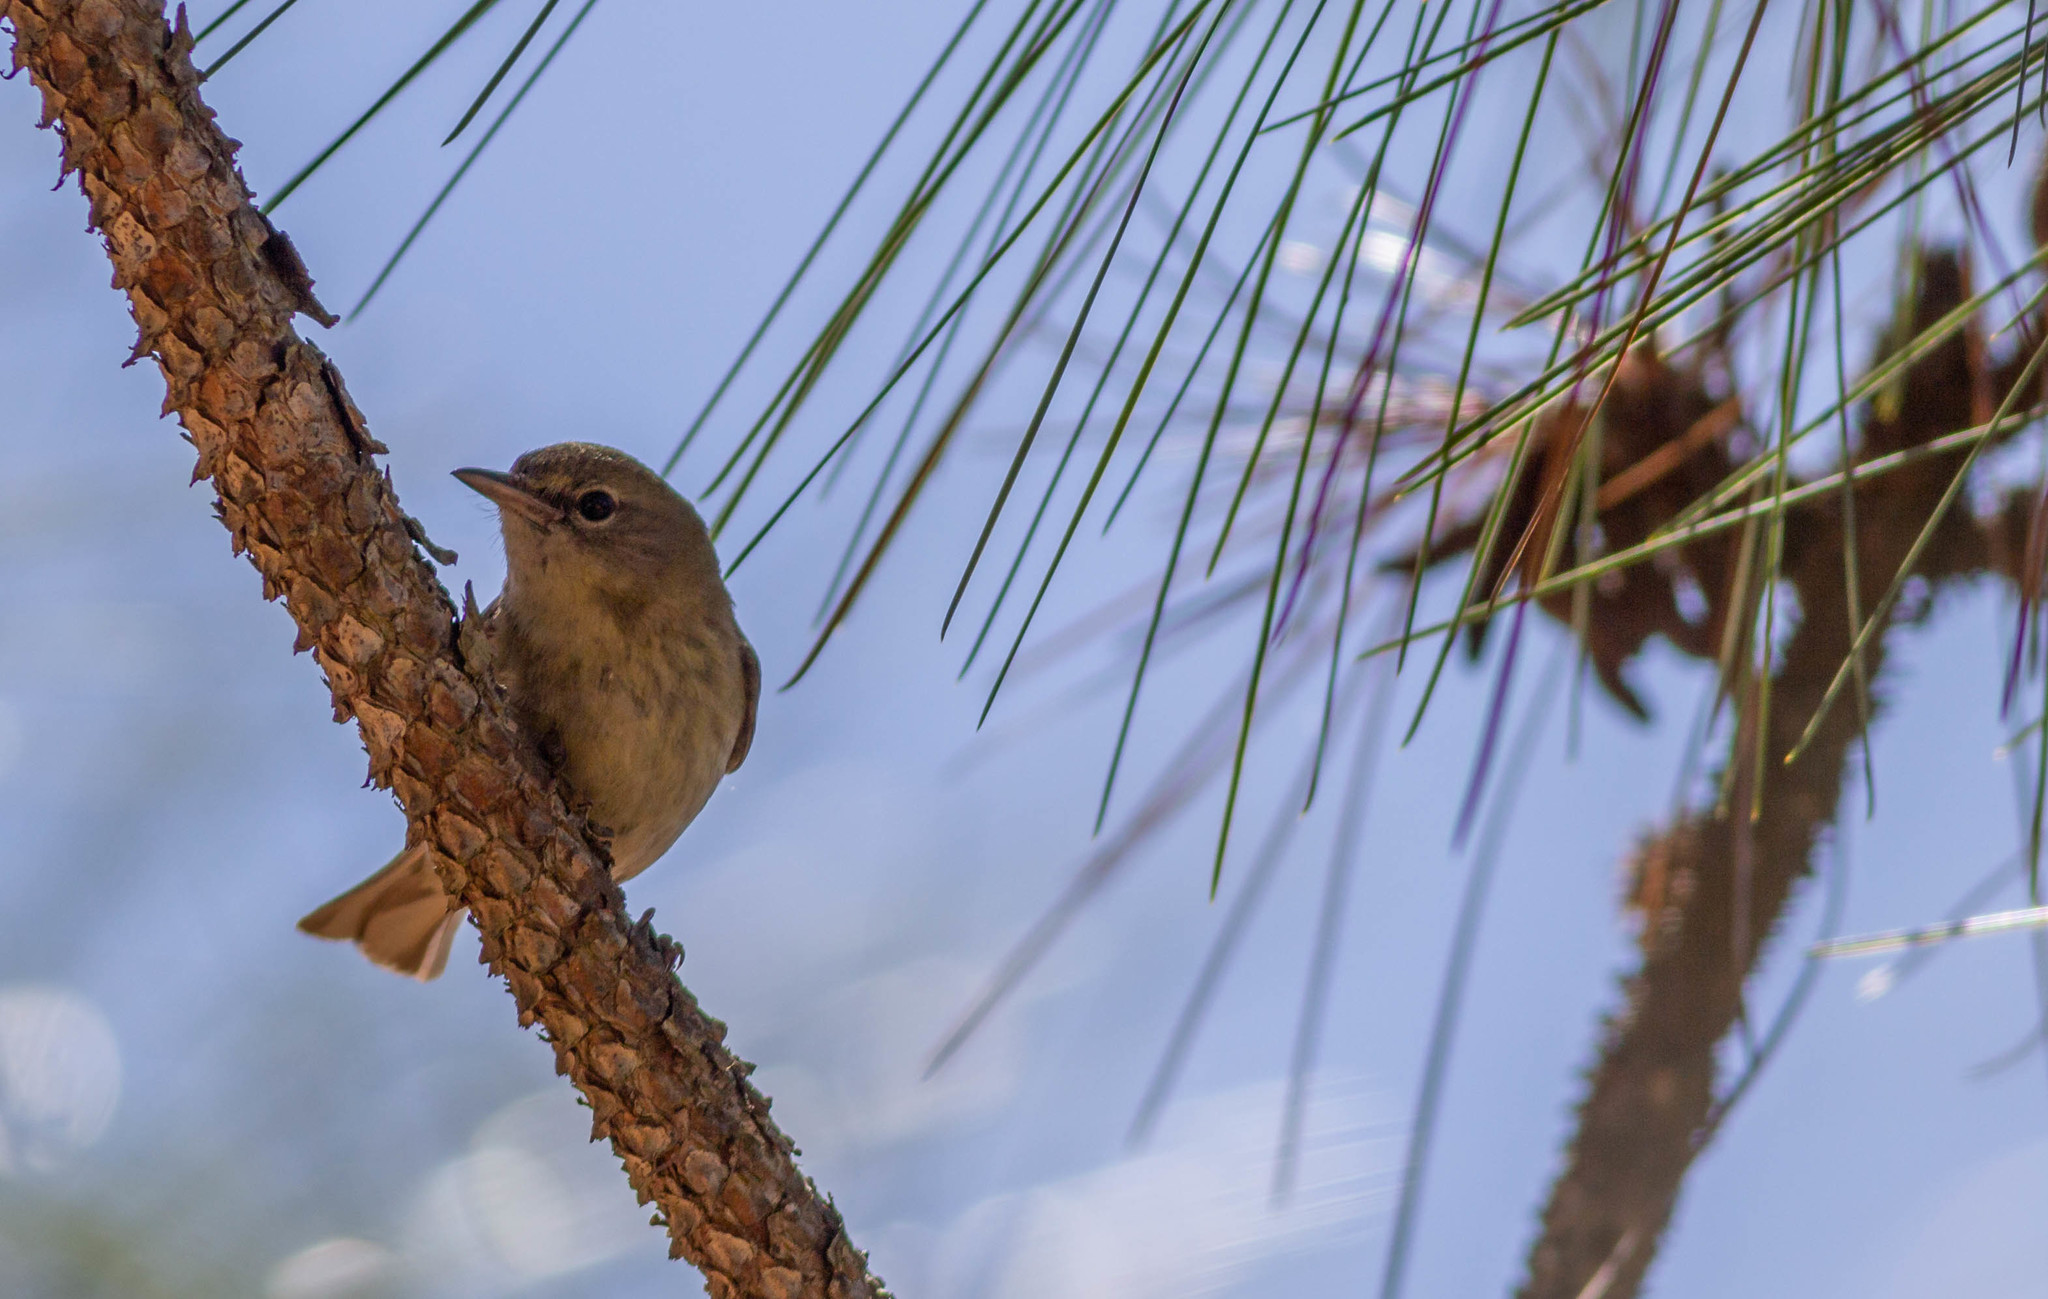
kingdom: Animalia
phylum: Chordata
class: Aves
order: Passeriformes
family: Parulidae
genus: Setophaga
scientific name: Setophaga pinus
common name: Pine warbler
